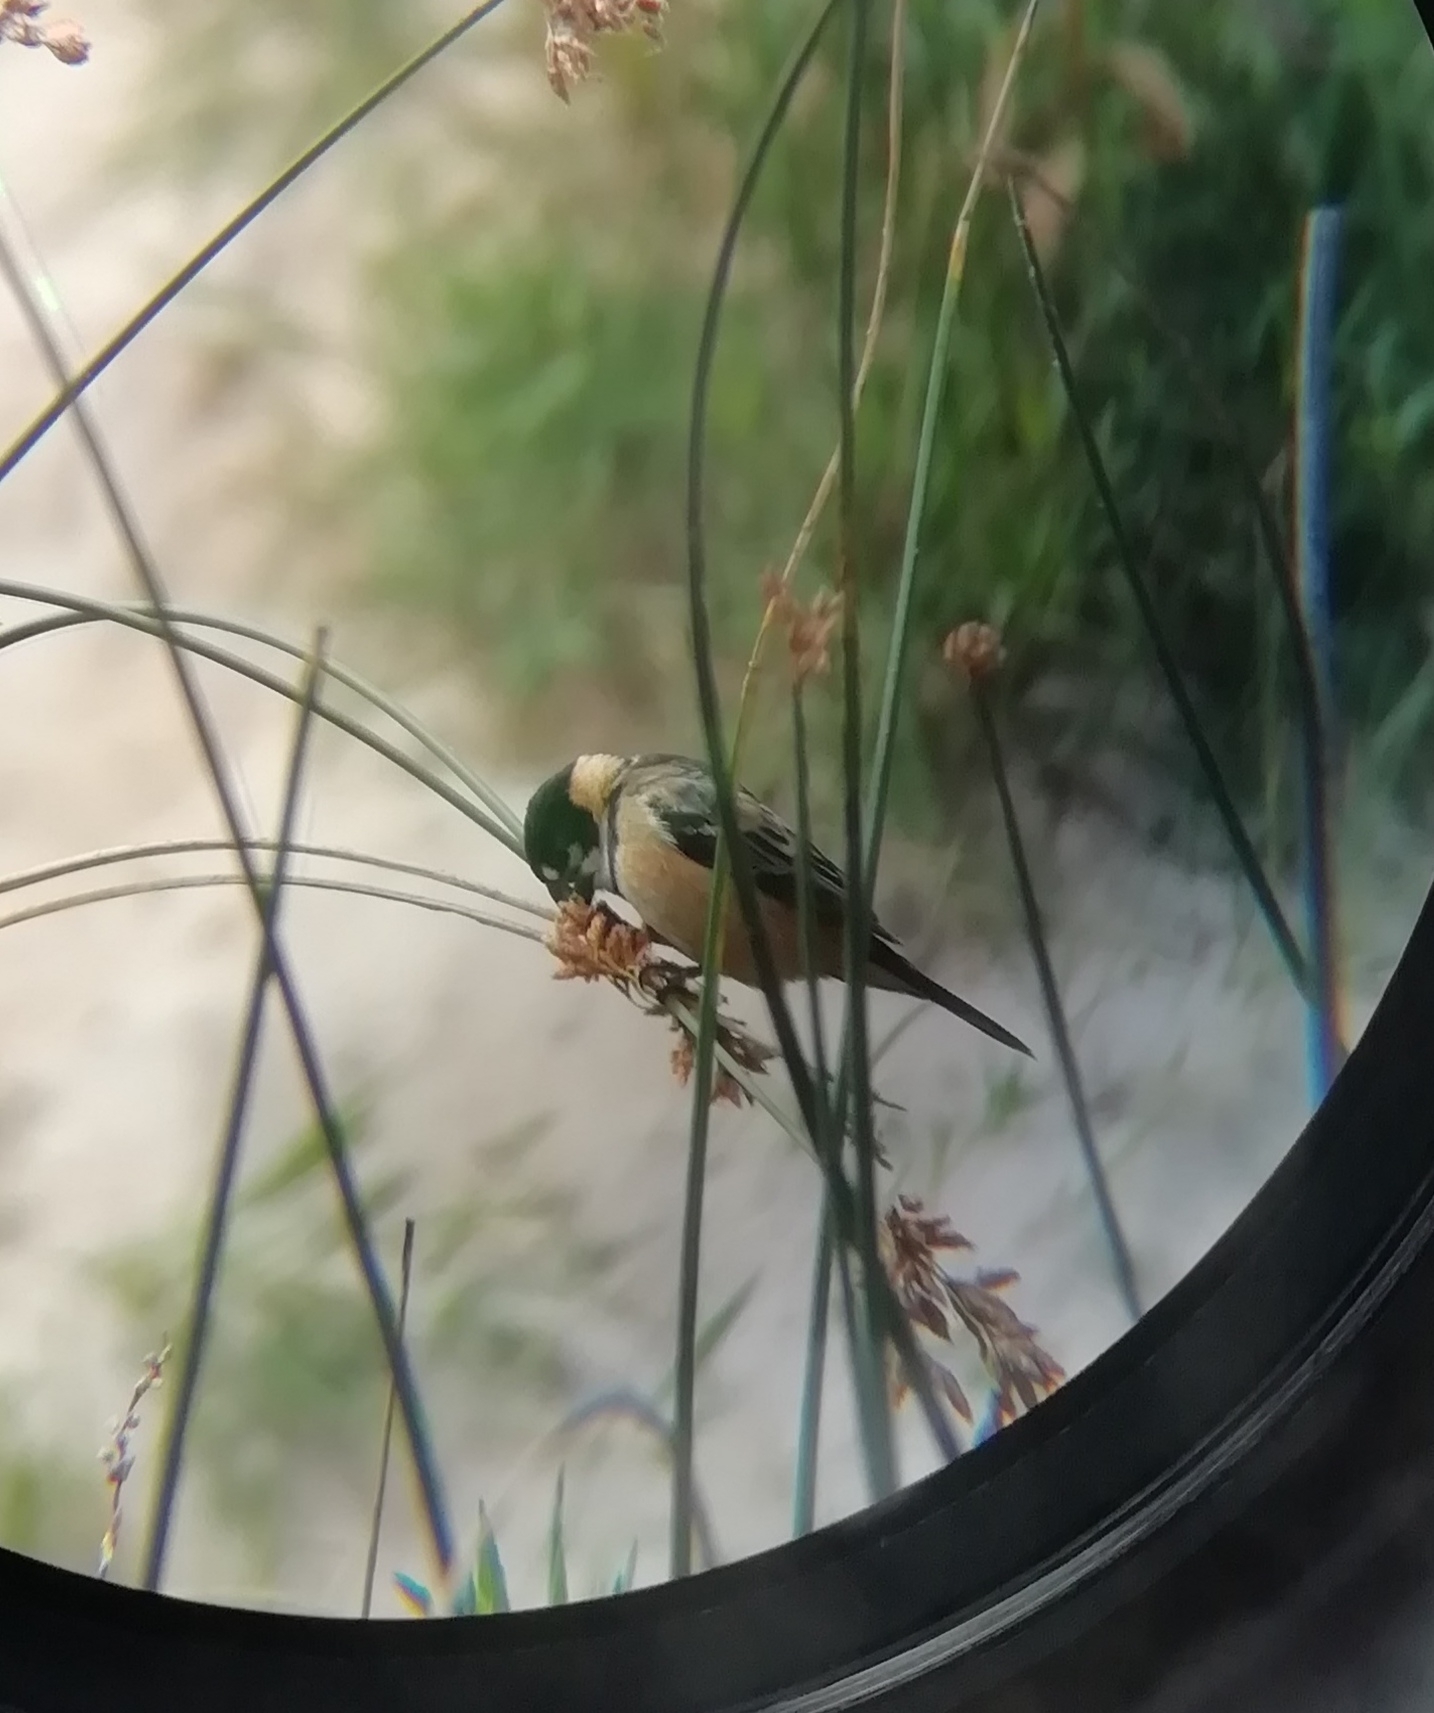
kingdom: Animalia
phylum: Chordata
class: Aves
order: Passeriformes
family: Thraupidae
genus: Sporophila
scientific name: Sporophila collaris
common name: Rusty-collared seedeater
